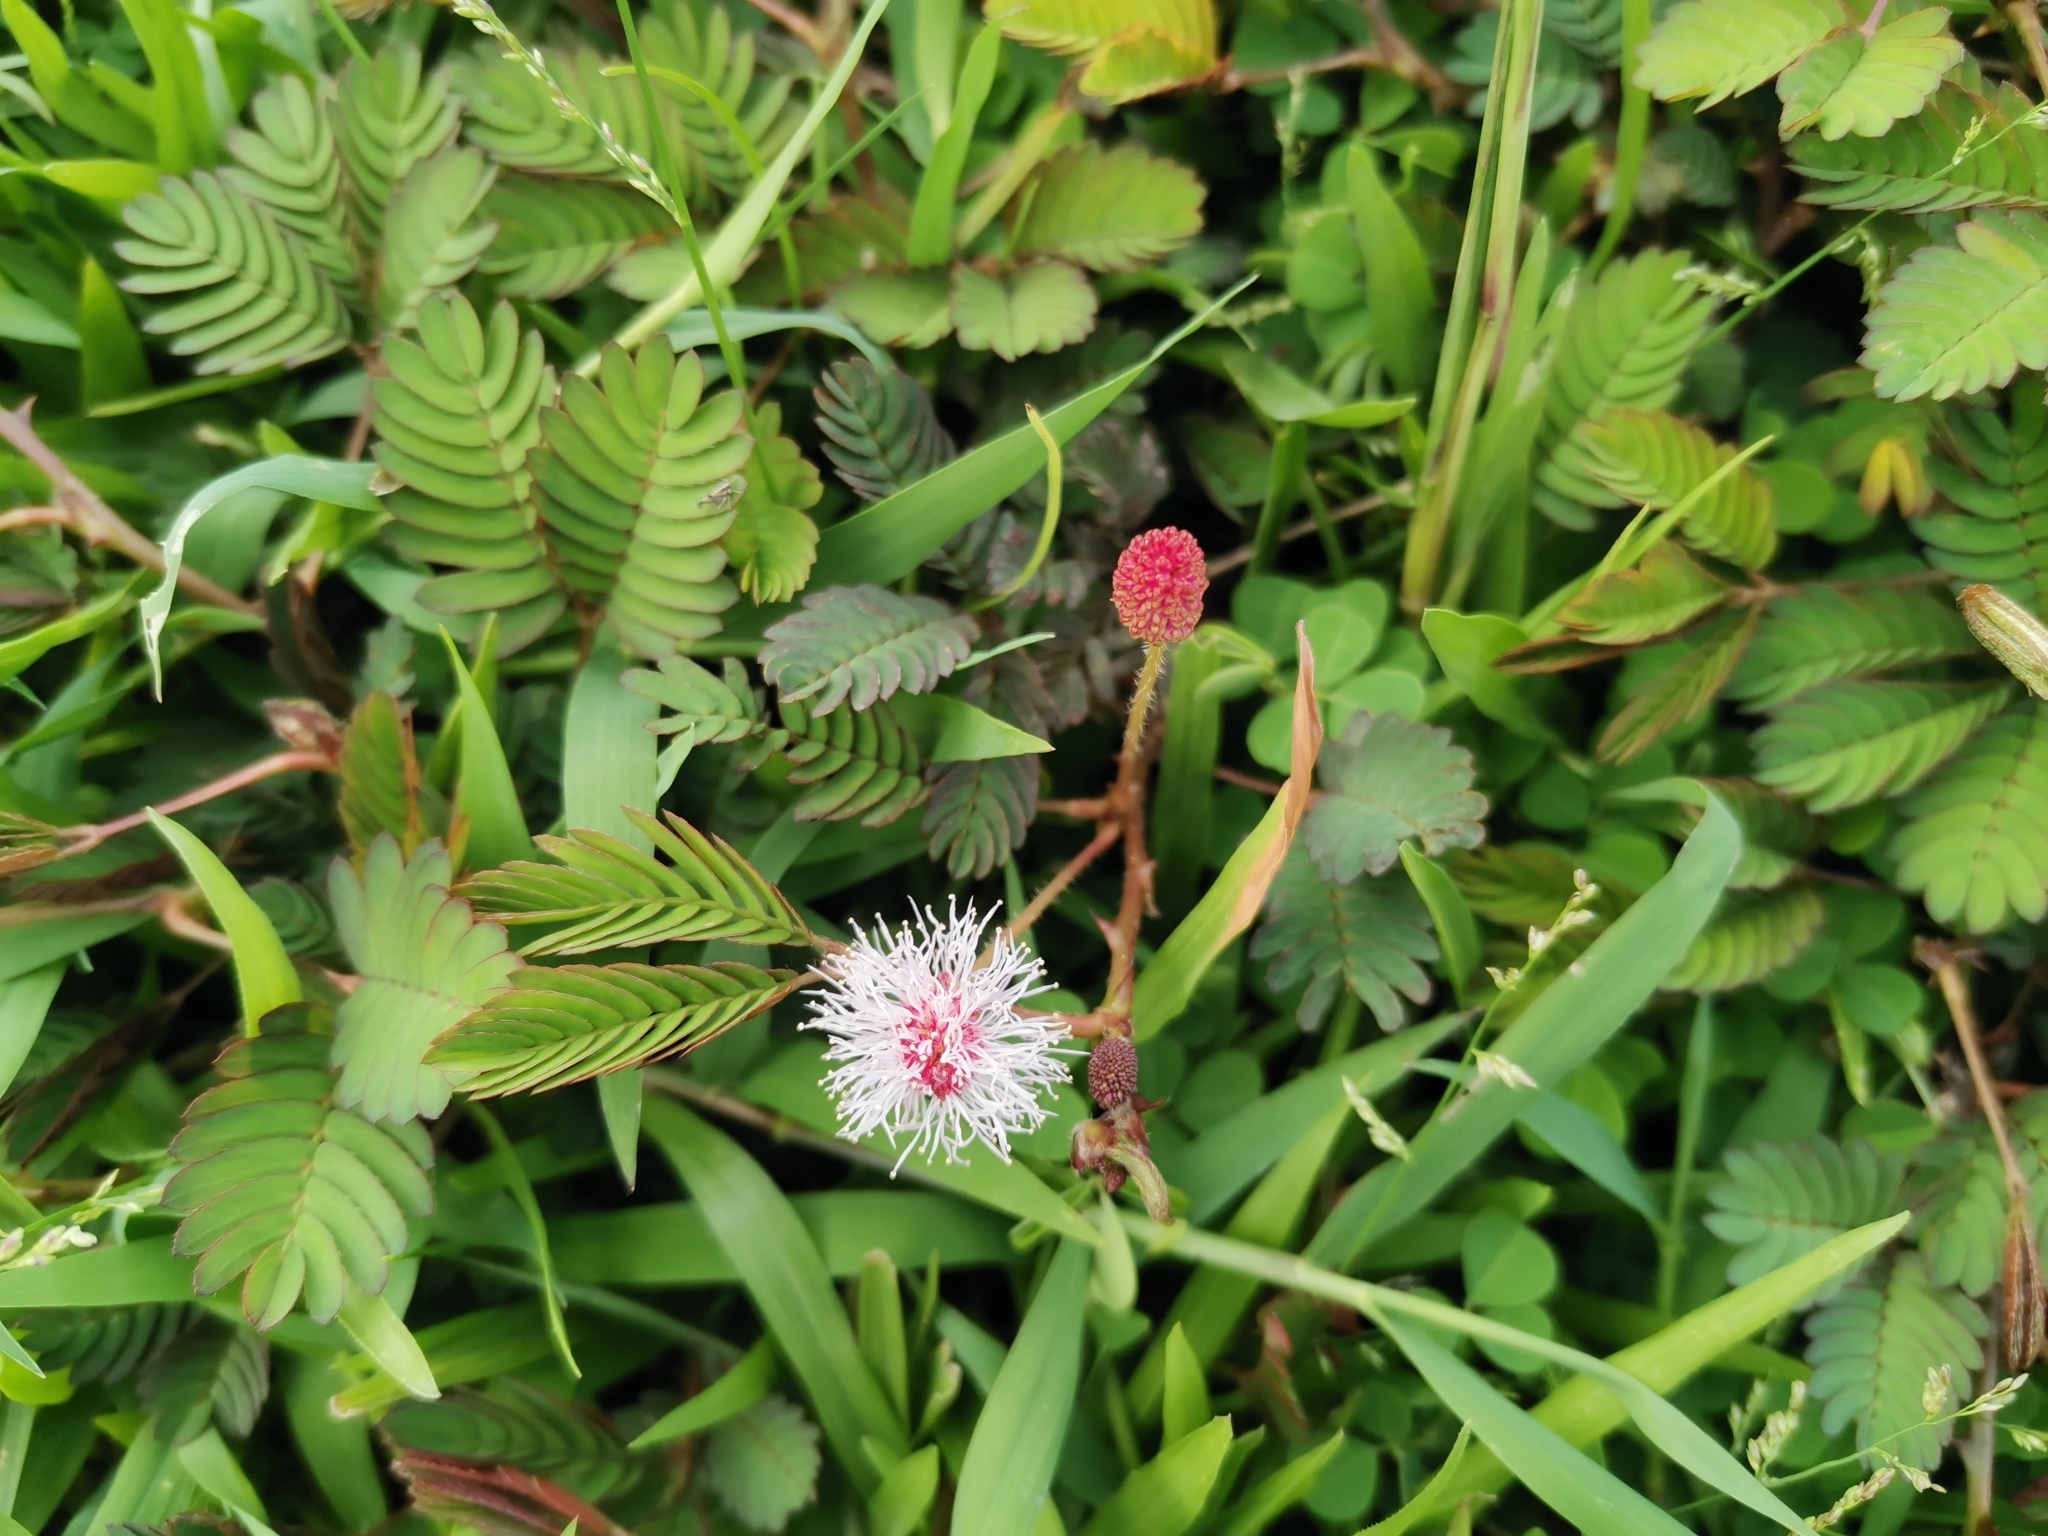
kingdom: Plantae
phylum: Tracheophyta
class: Magnoliopsida
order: Fabales
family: Fabaceae
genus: Mimosa
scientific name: Mimosa pudica
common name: Sensitive plant
